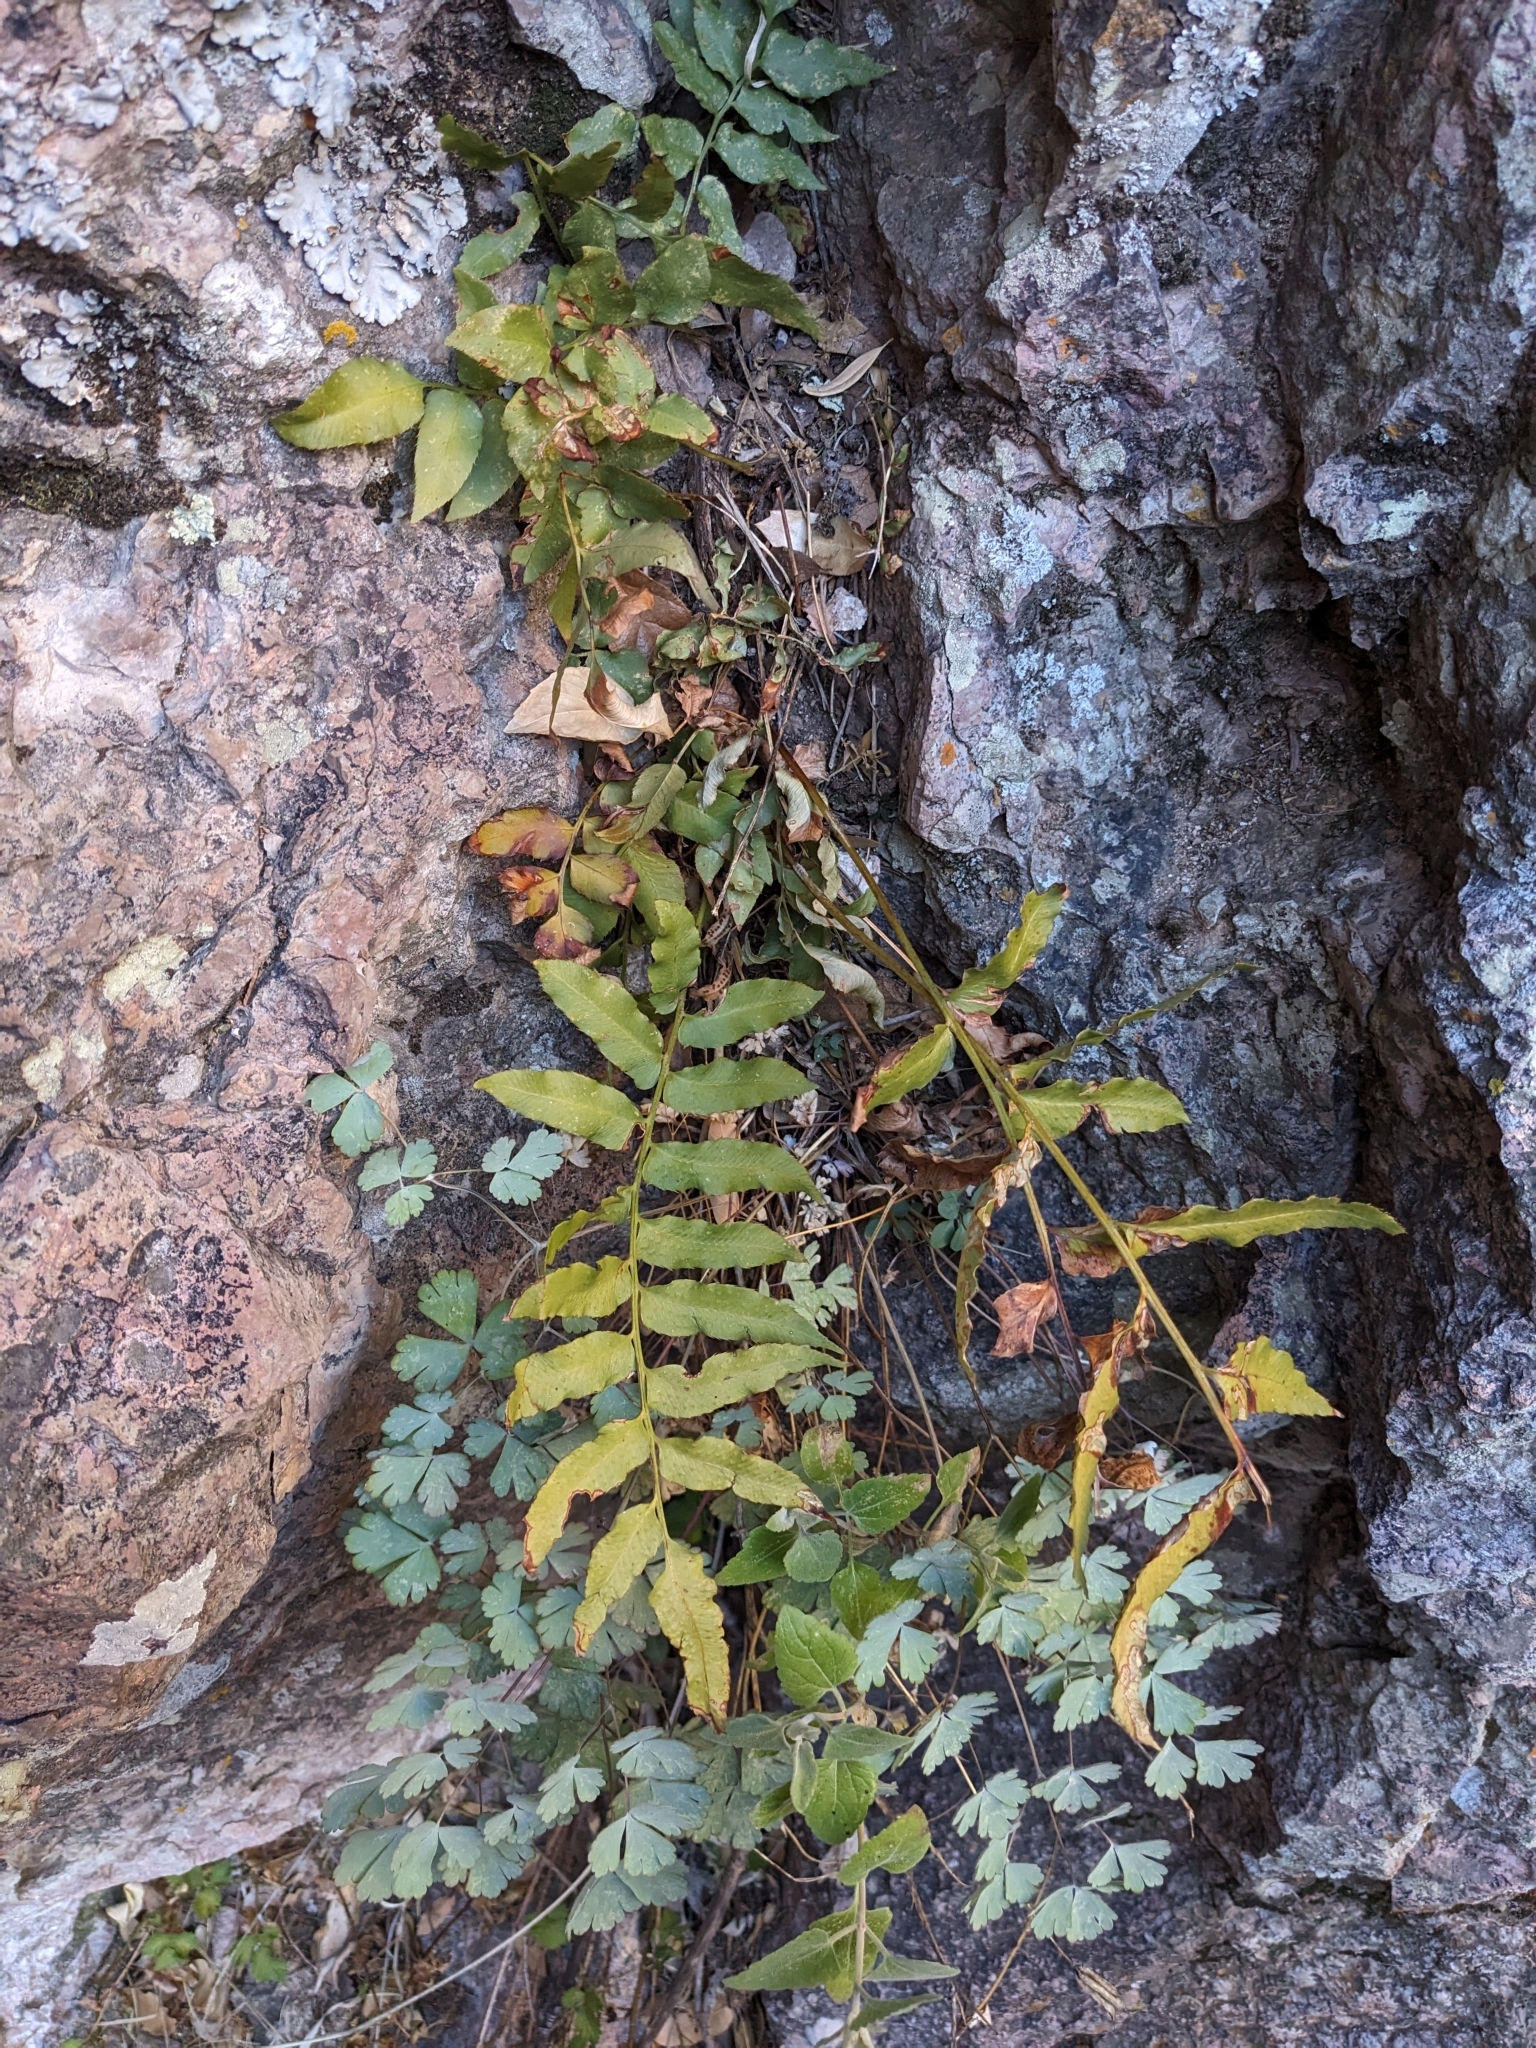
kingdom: Plantae
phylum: Tracheophyta
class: Polypodiopsida
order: Polypodiales
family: Dryopteridaceae
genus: Phanerophlebia
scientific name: Phanerophlebia auriculata
